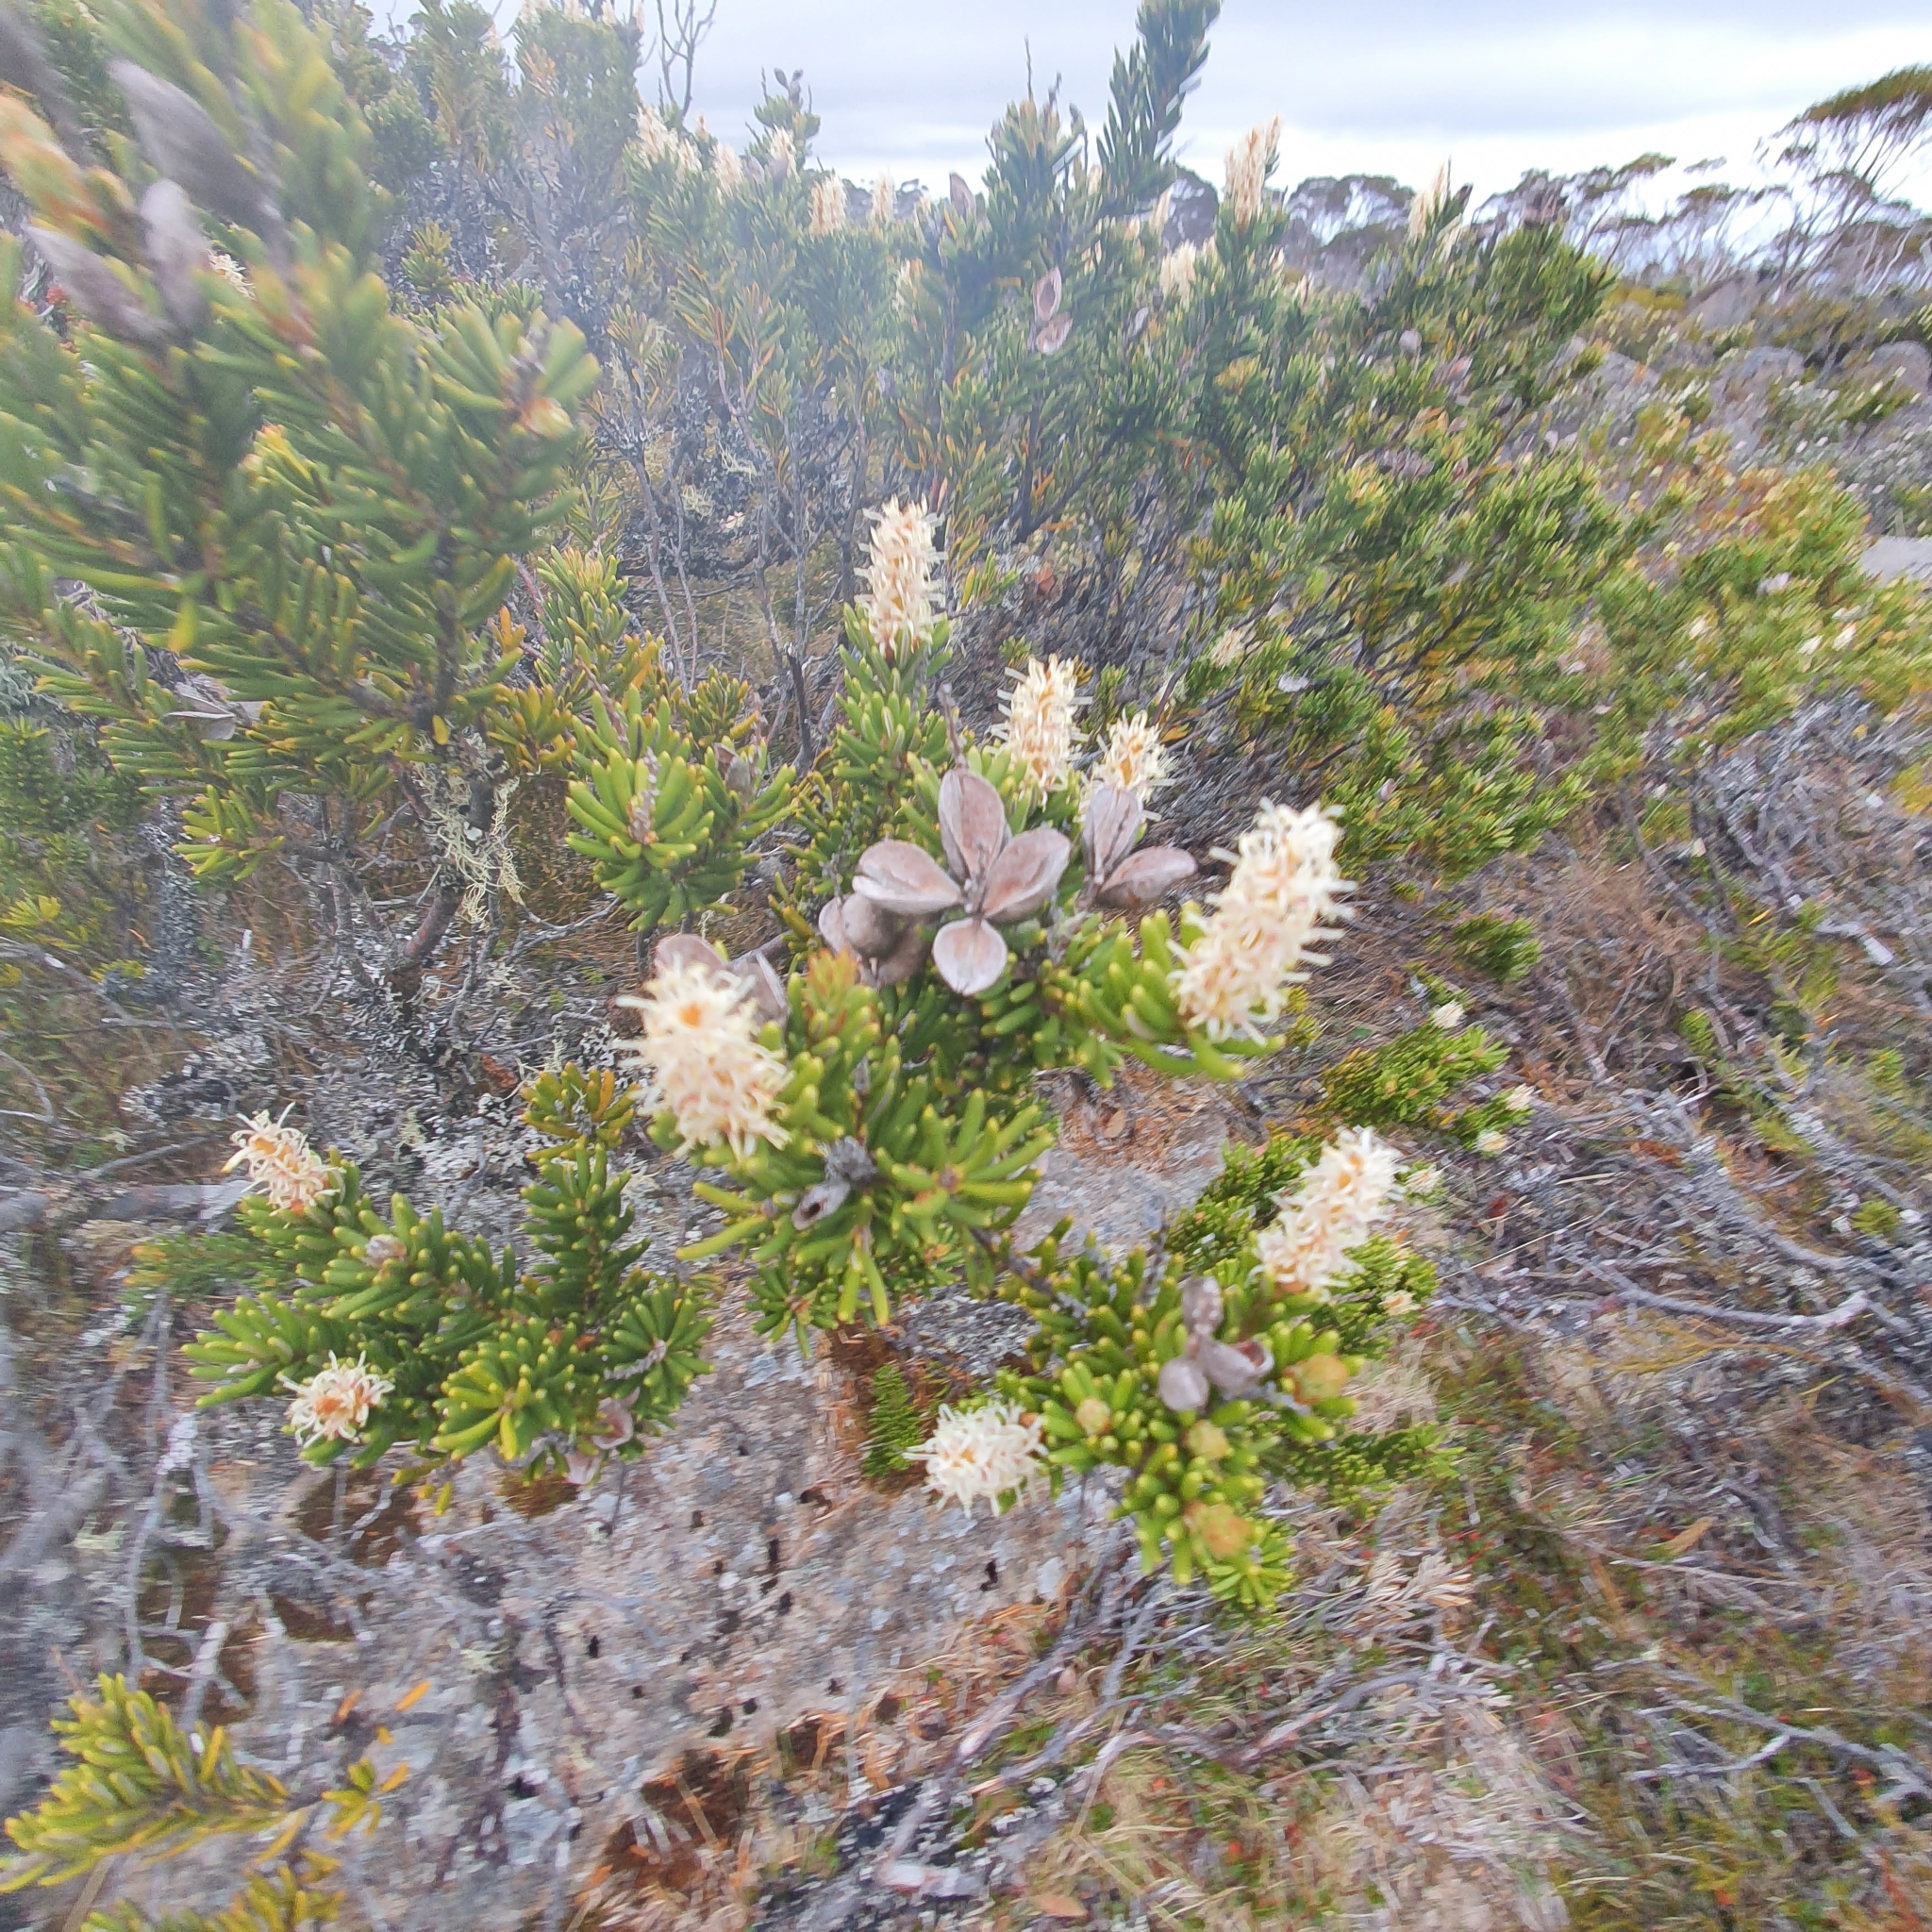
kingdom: Plantae
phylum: Tracheophyta
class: Magnoliopsida
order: Proteales
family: Proteaceae
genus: Orites
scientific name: Orites revolutus
